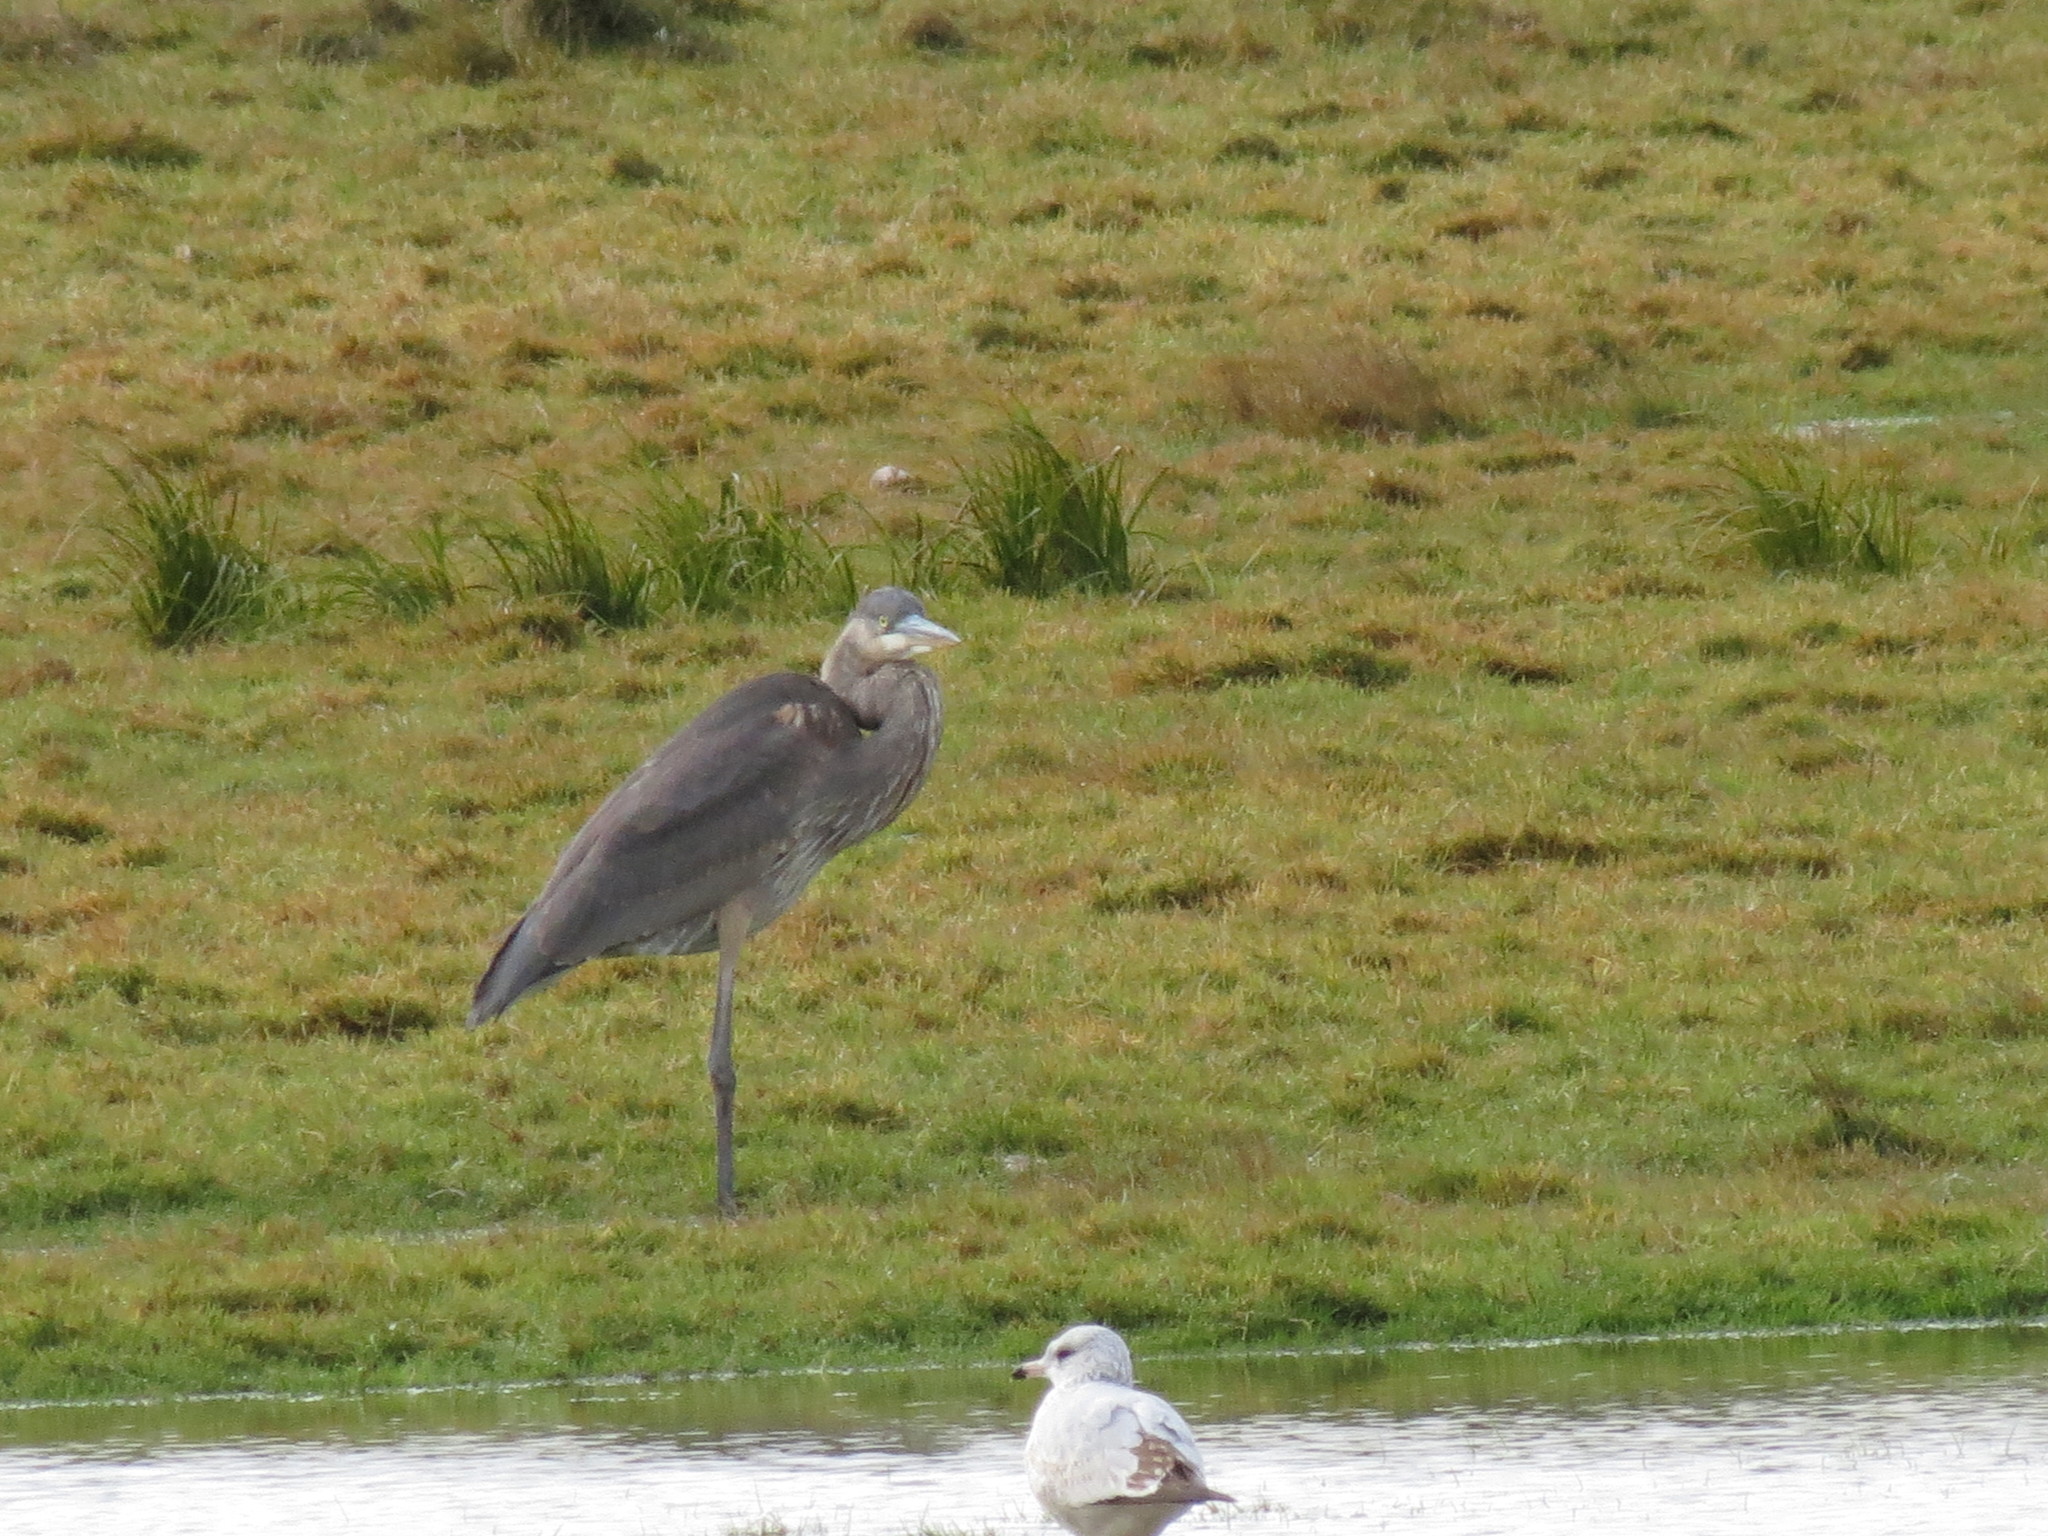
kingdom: Animalia
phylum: Chordata
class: Aves
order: Pelecaniformes
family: Ardeidae
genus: Ardea
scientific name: Ardea herodias
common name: Great blue heron
